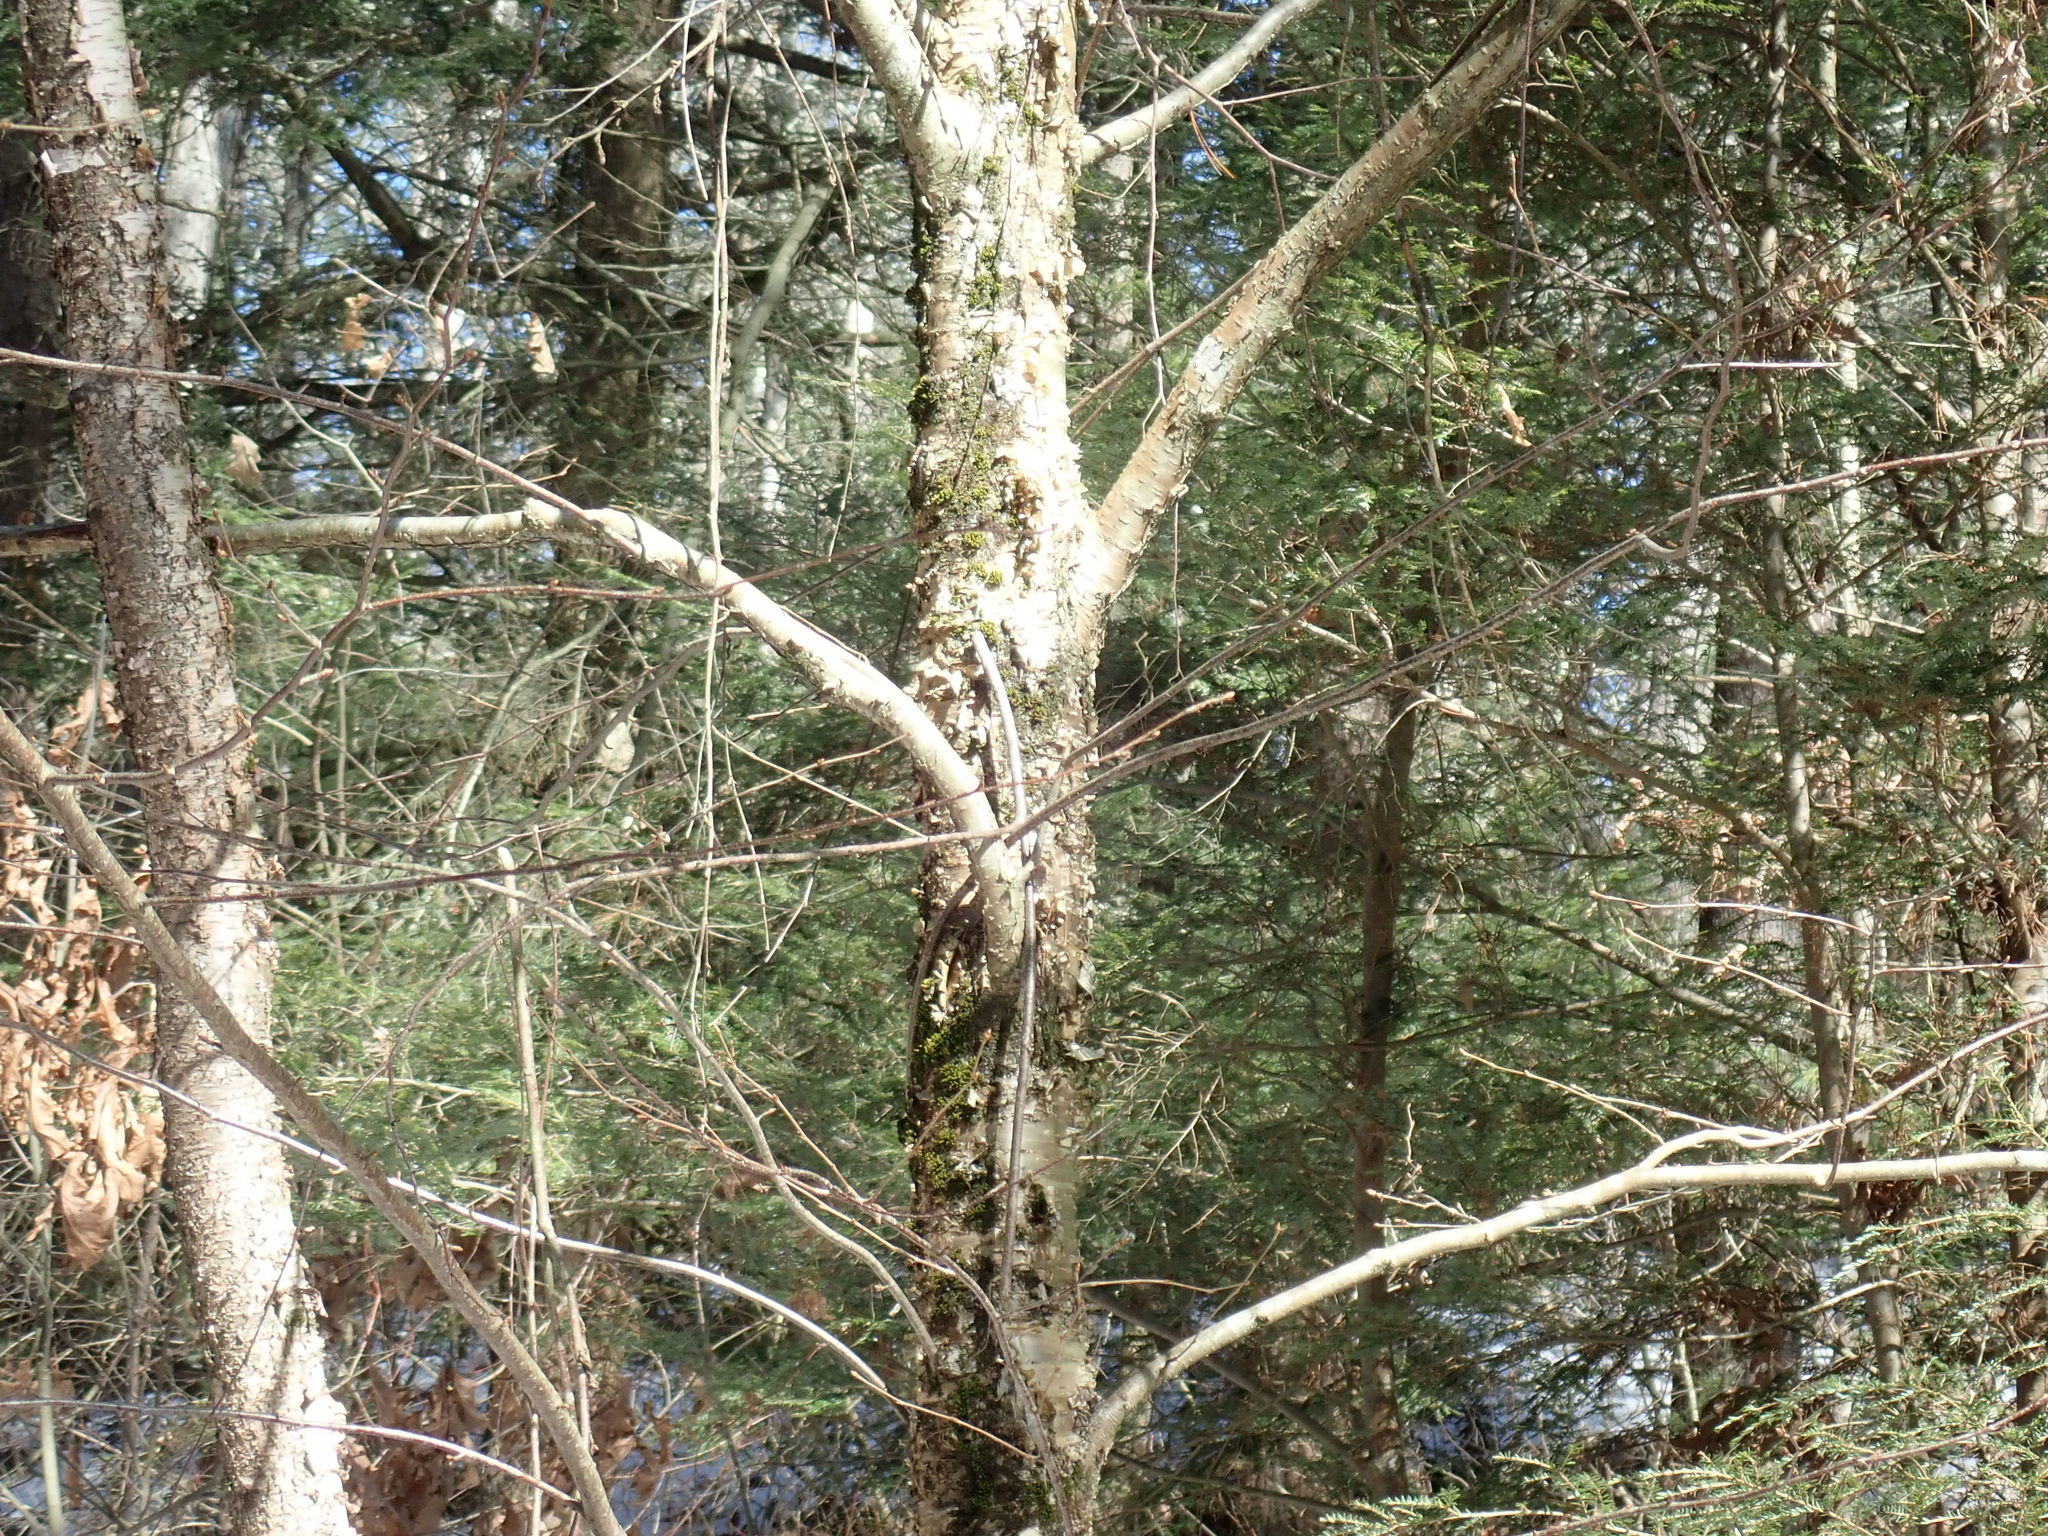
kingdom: Plantae
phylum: Tracheophyta
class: Magnoliopsida
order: Fagales
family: Betulaceae
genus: Betula
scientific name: Betula alleghaniensis
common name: Yellow birch
